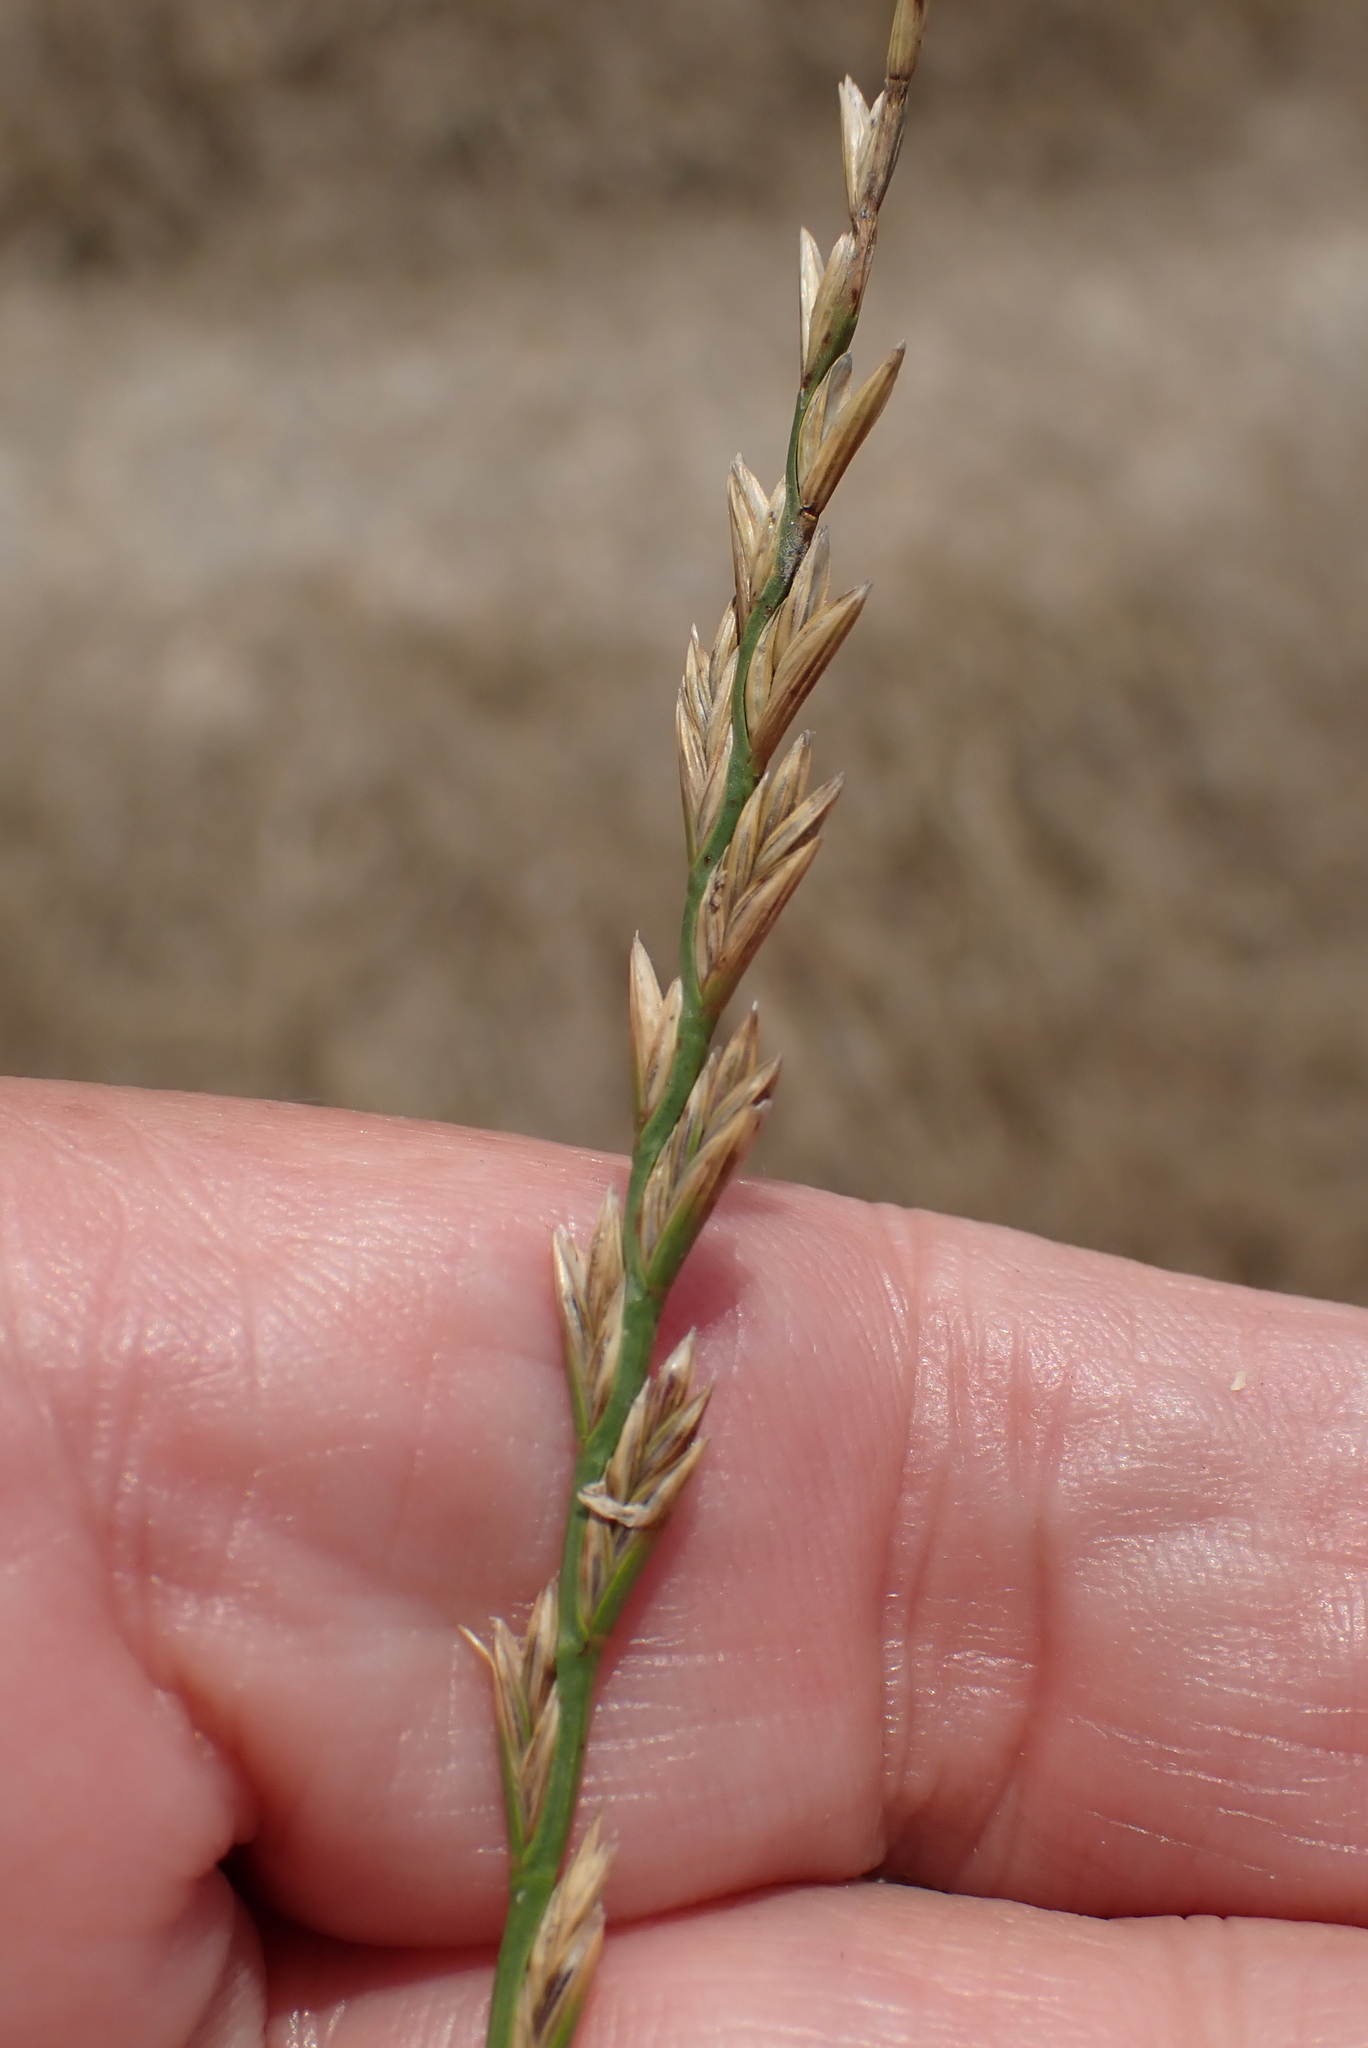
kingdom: Plantae
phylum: Tracheophyta
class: Liliopsida
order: Poales
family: Poaceae
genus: Lolium
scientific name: Lolium perenne
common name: Perennial ryegrass
